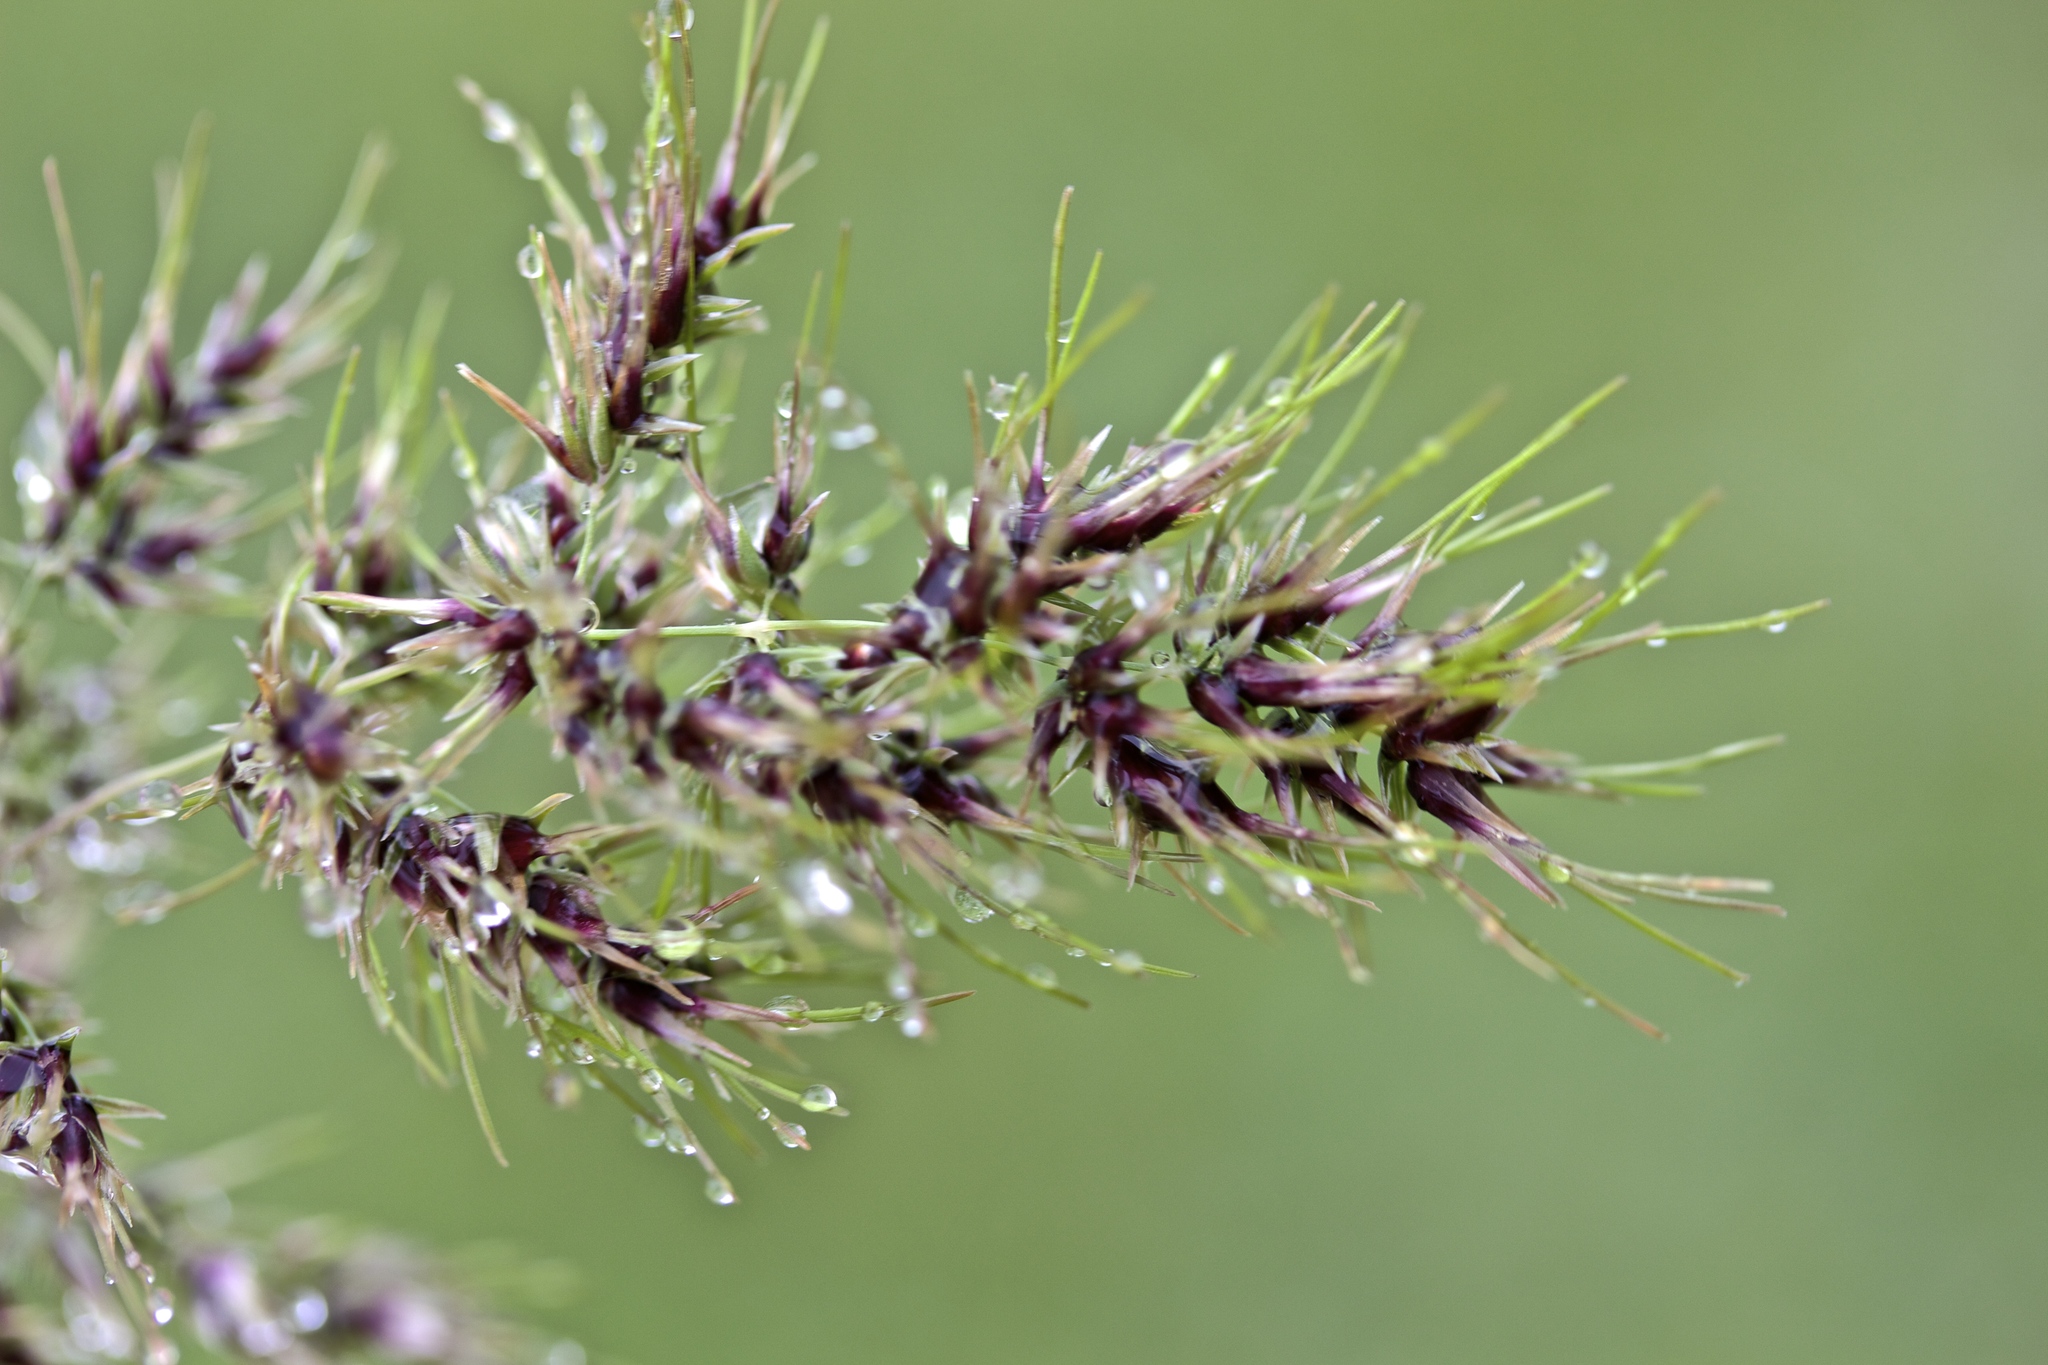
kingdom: Plantae
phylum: Tracheophyta
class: Liliopsida
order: Poales
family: Poaceae
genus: Poa
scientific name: Poa bulbosa
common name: Bulbous bluegrass
